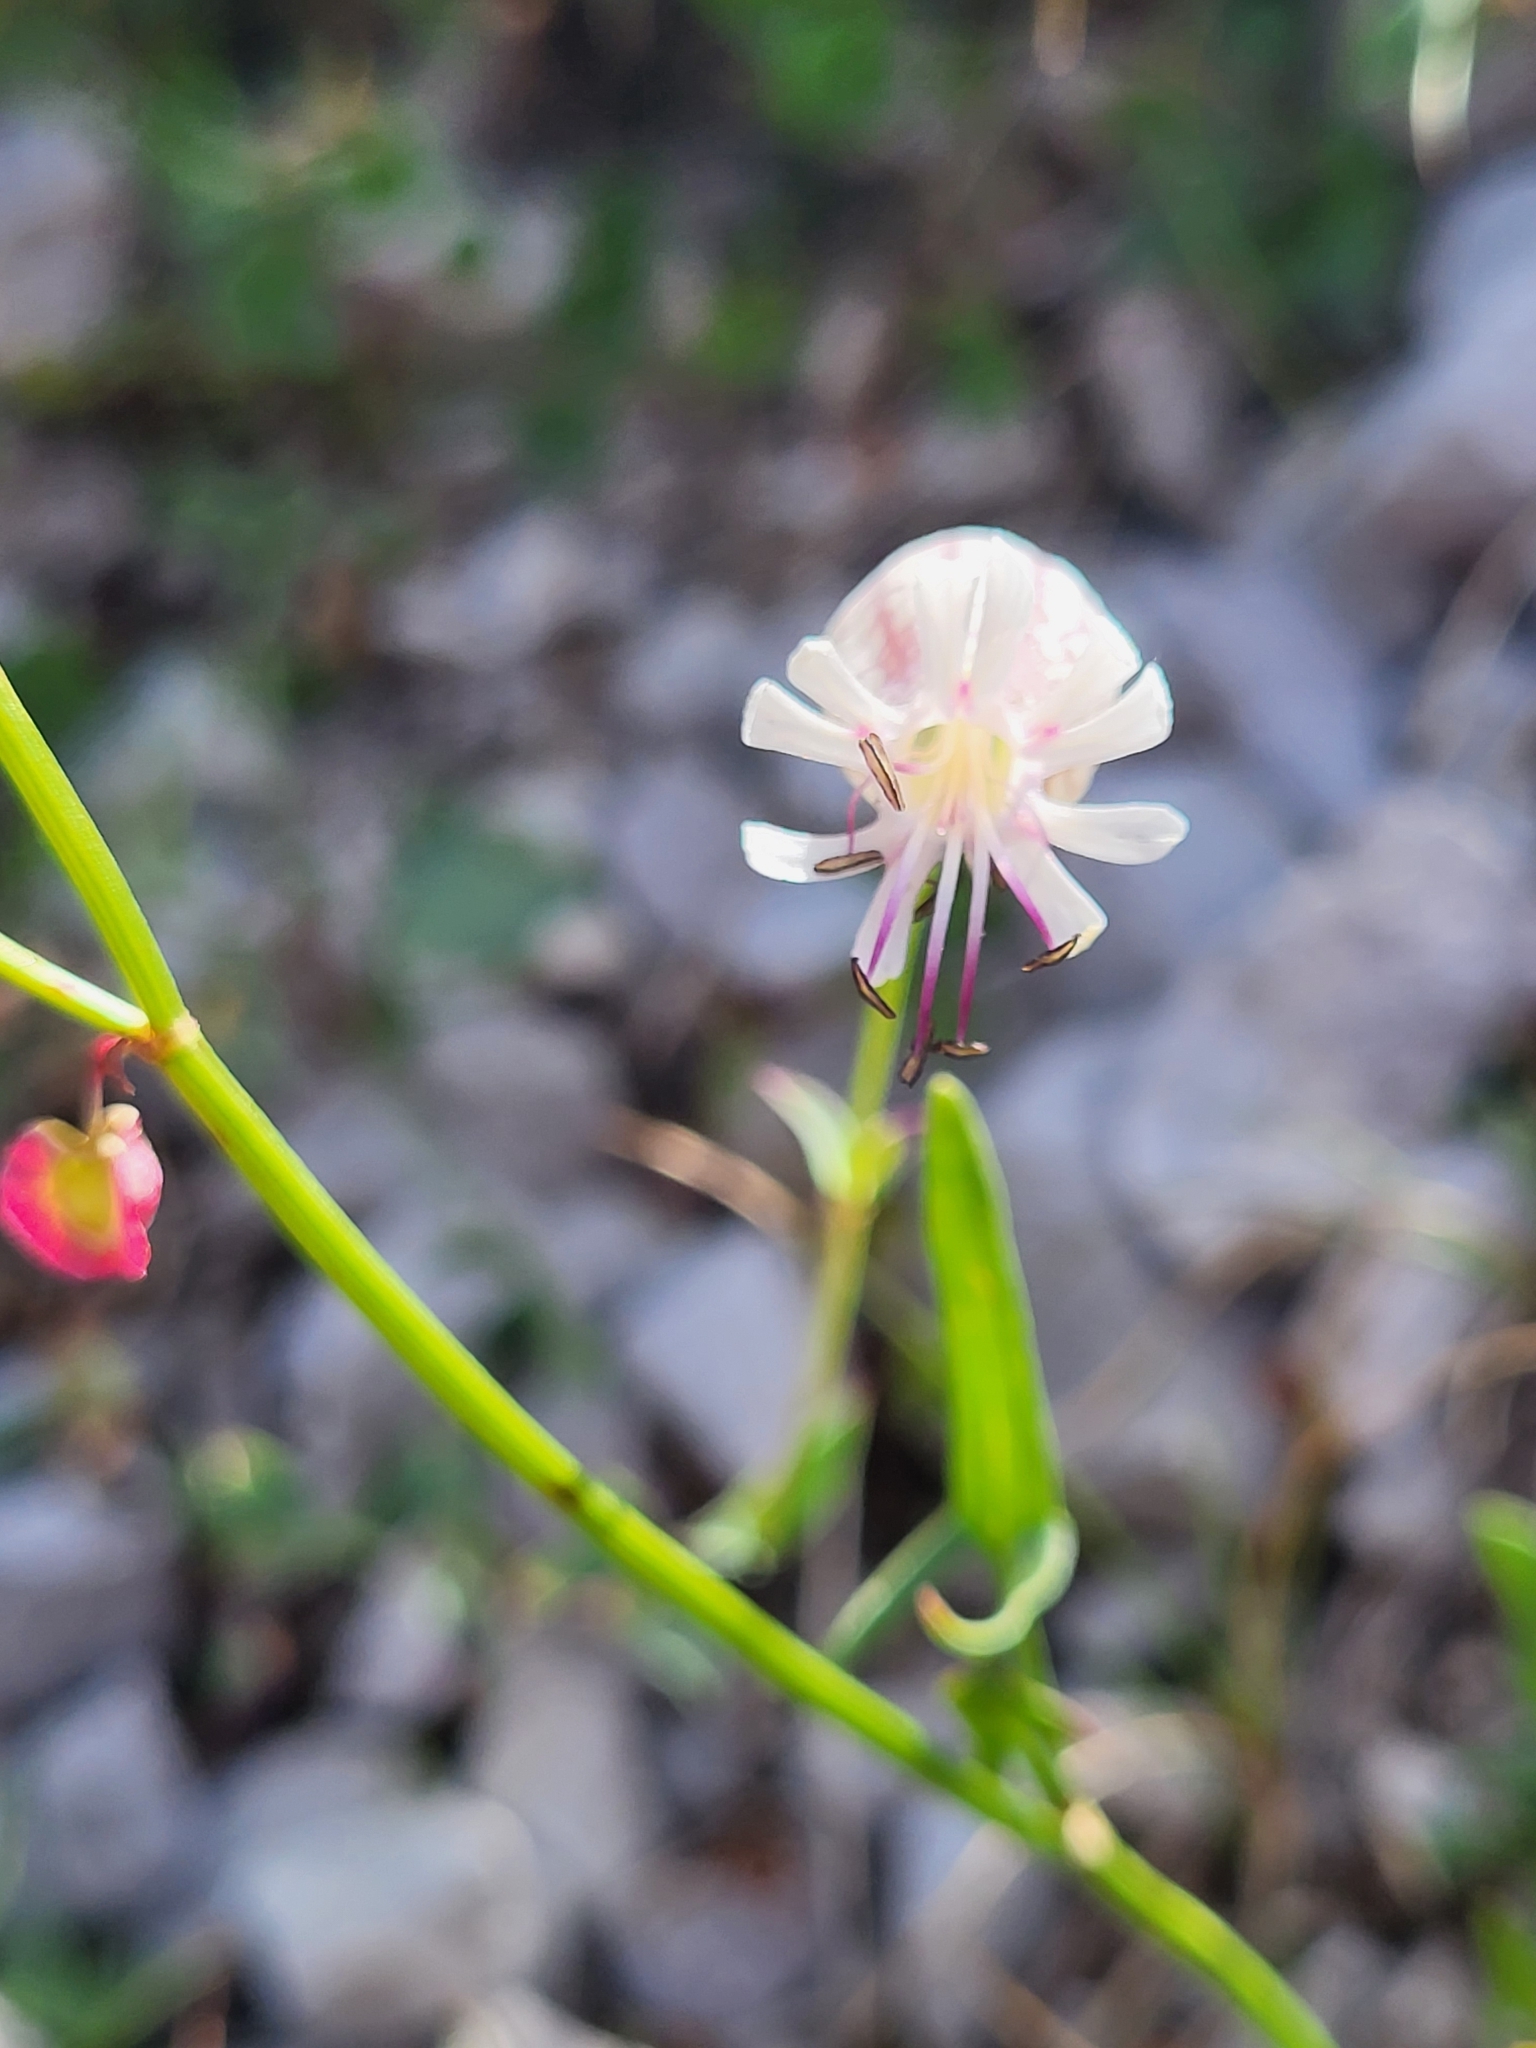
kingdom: Plantae
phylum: Tracheophyta
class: Magnoliopsida
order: Caryophyllales
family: Caryophyllaceae
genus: Silene
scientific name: Silene vulgaris
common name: Bladder campion
